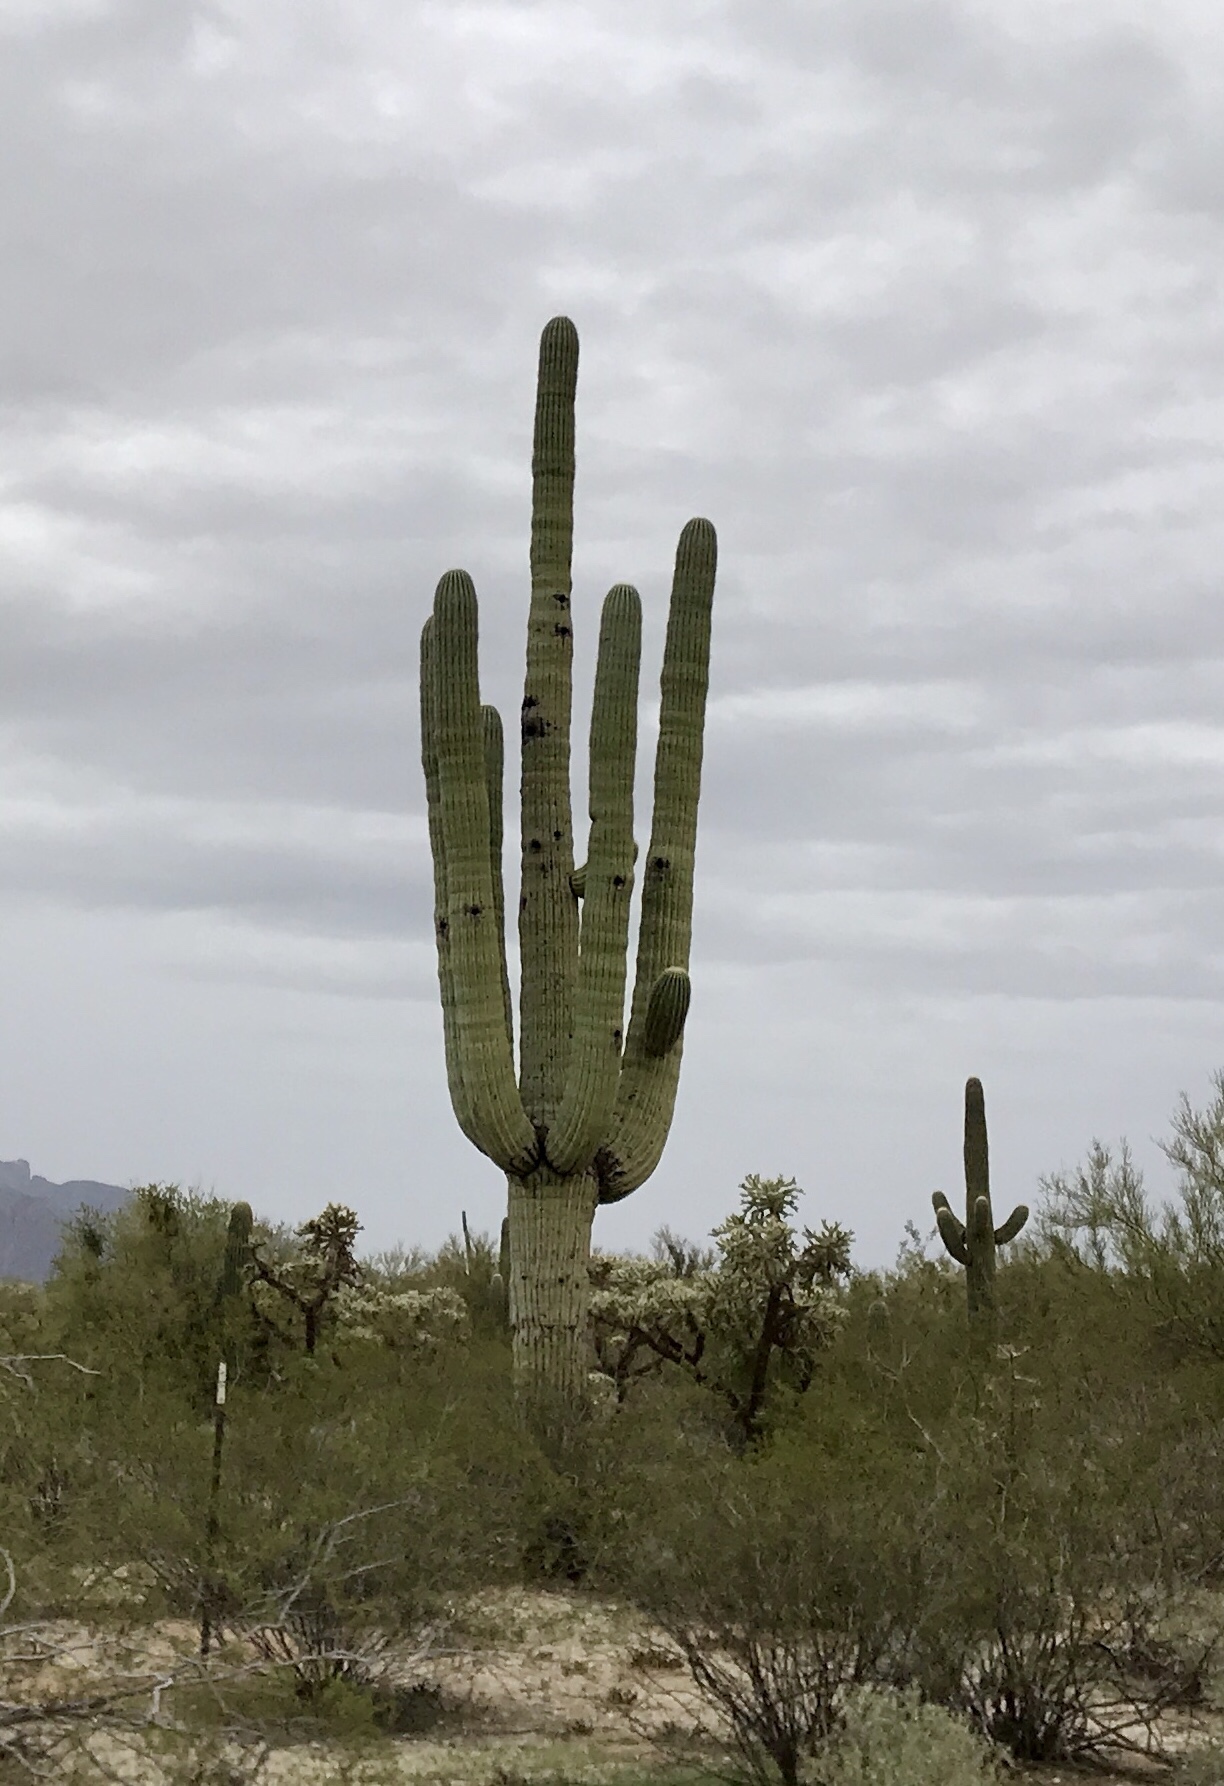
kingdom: Plantae
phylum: Tracheophyta
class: Magnoliopsida
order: Caryophyllales
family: Cactaceae
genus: Carnegiea
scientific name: Carnegiea gigantea
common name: Saguaro
